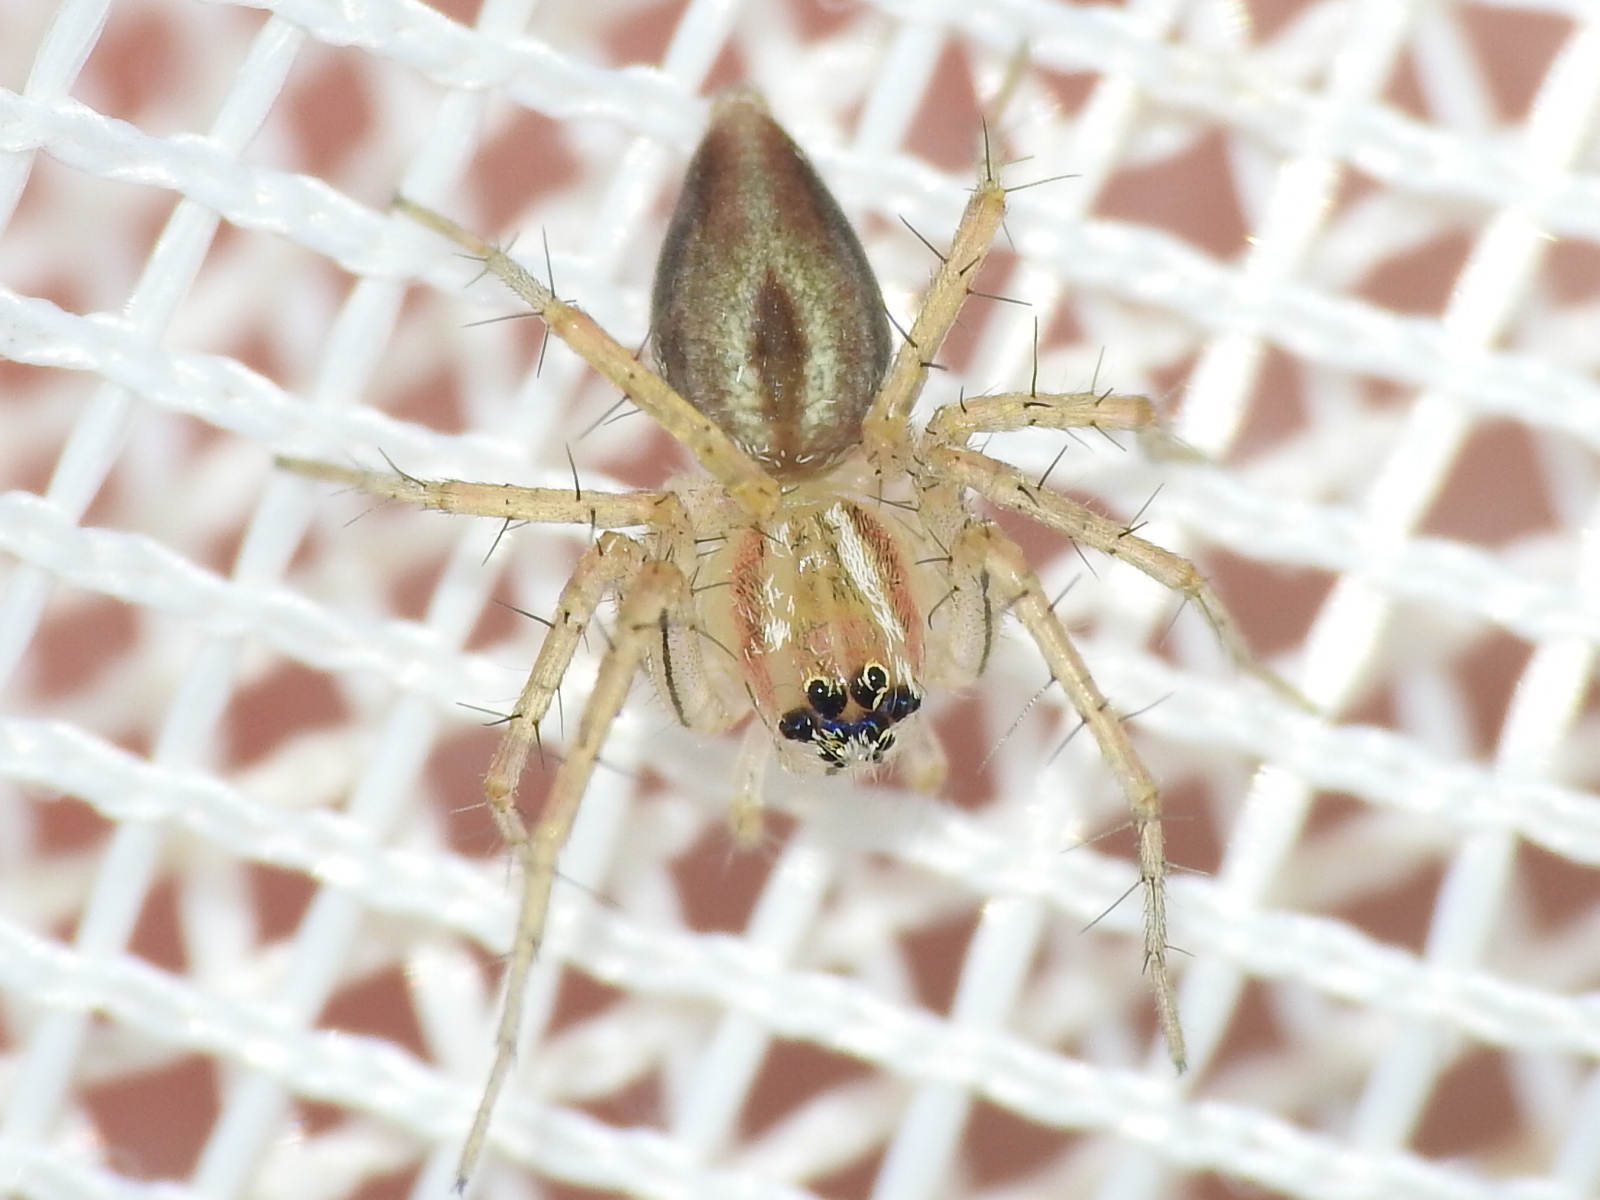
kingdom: Animalia
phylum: Arthropoda
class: Arachnida
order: Araneae
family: Oxyopidae
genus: Oxyopes
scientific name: Oxyopes salticus
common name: Lynx spiders
